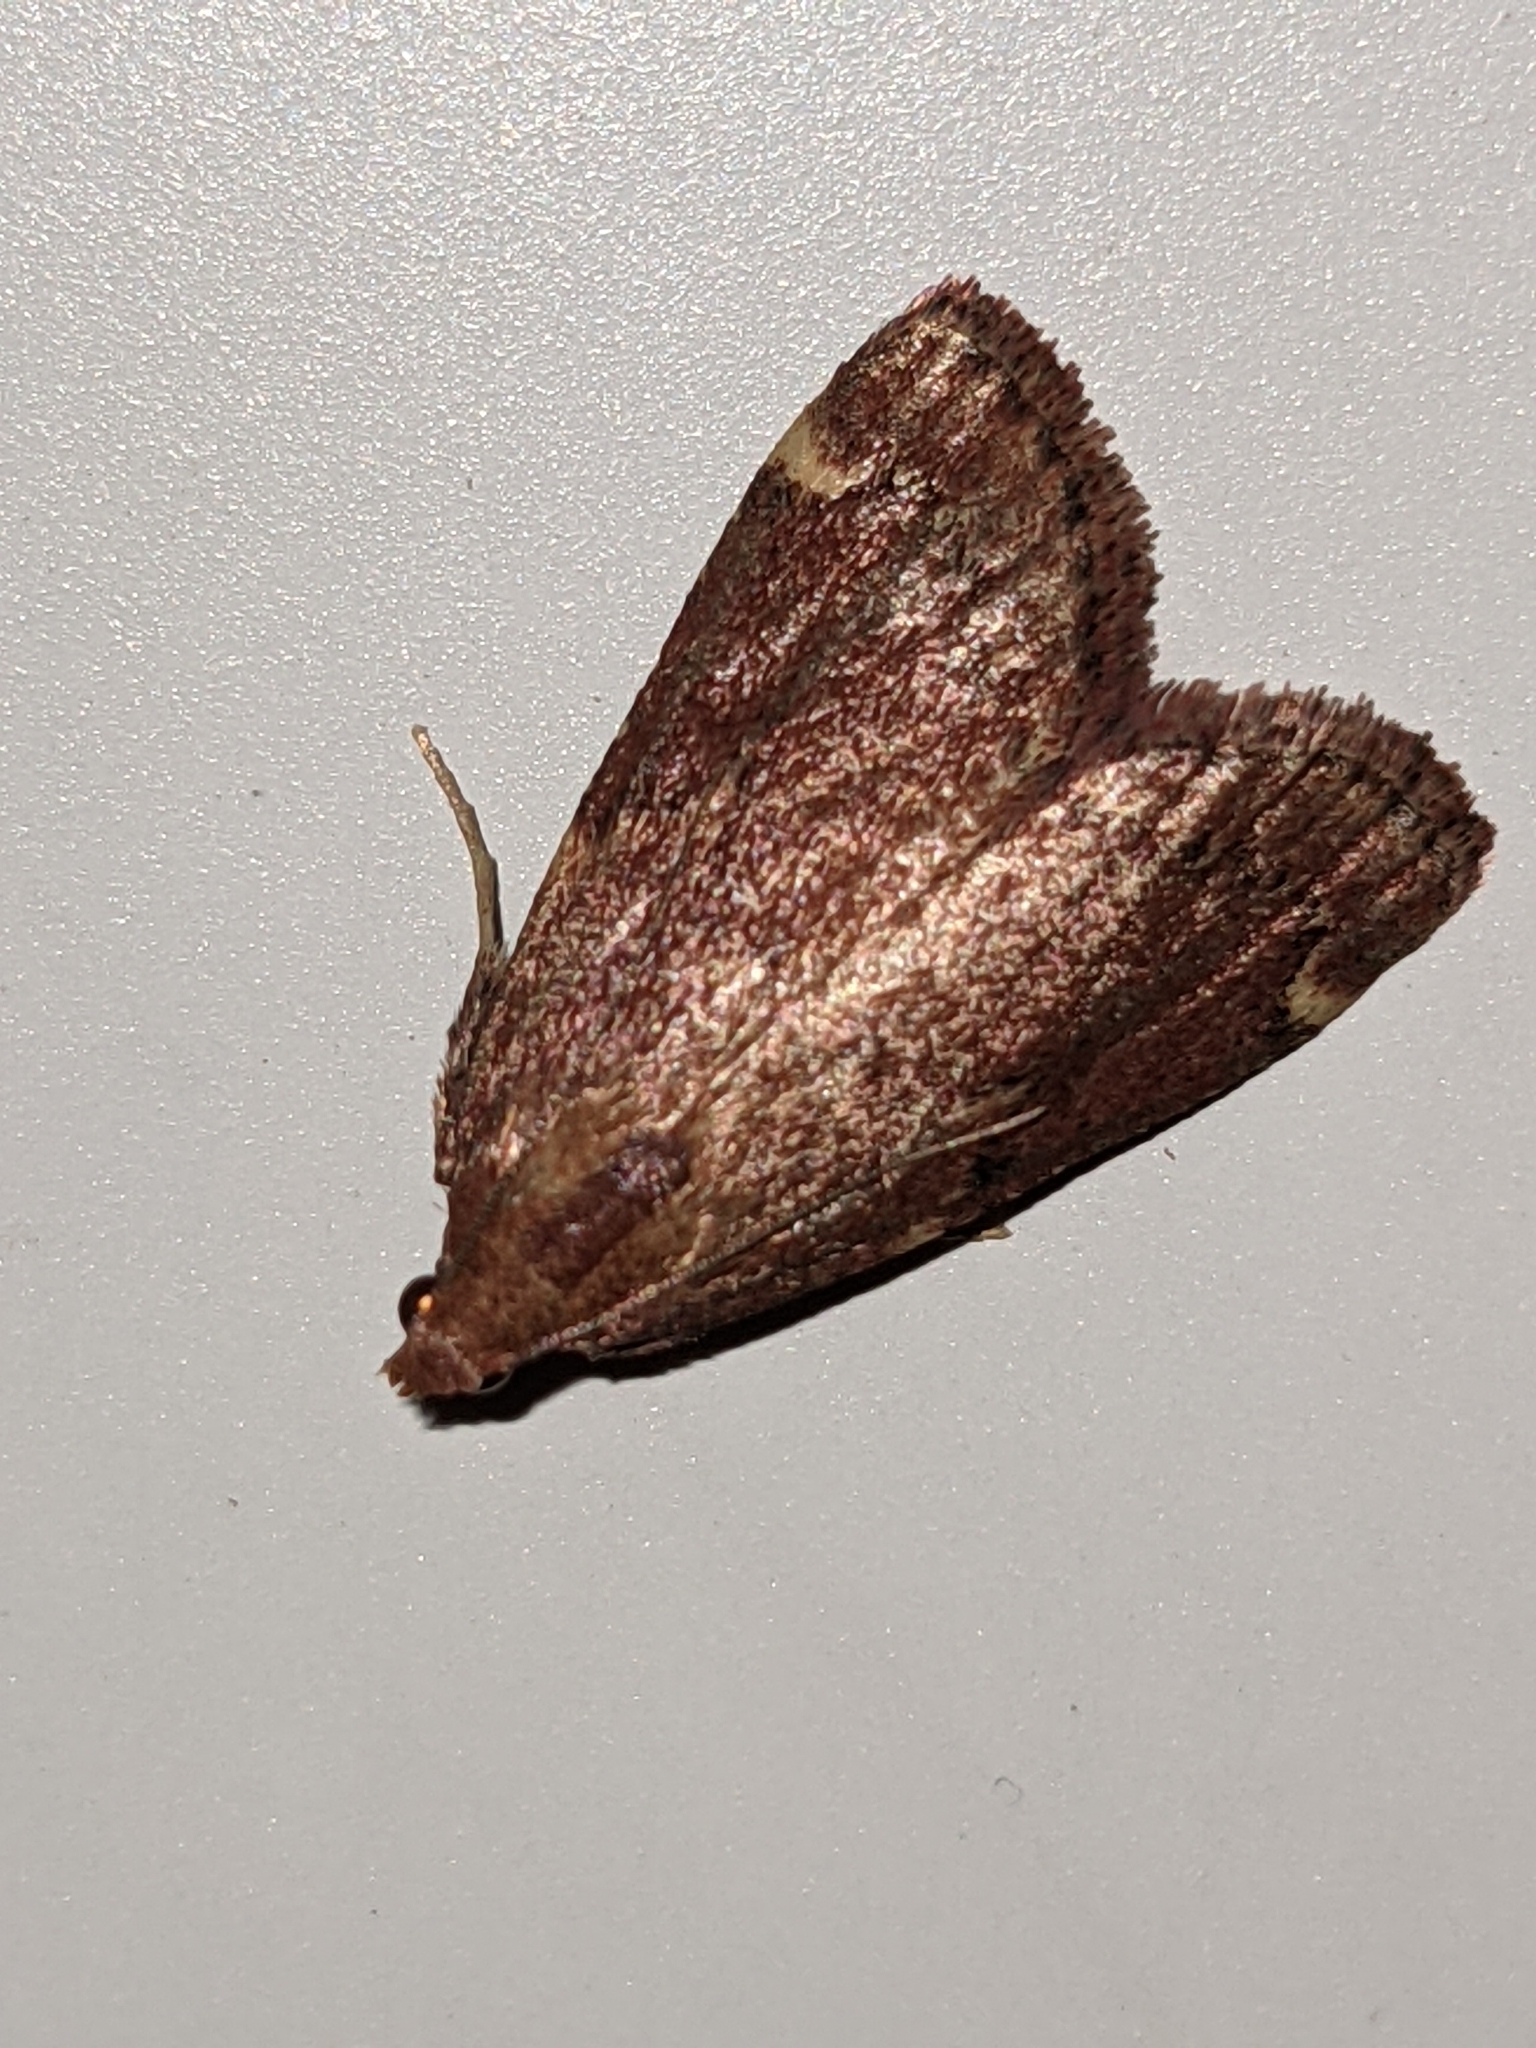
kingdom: Animalia
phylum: Arthropoda
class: Insecta
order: Lepidoptera
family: Pyralidae
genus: Hypsopygia
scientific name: Hypsopygia intermedialis
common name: Red-shawled moth
